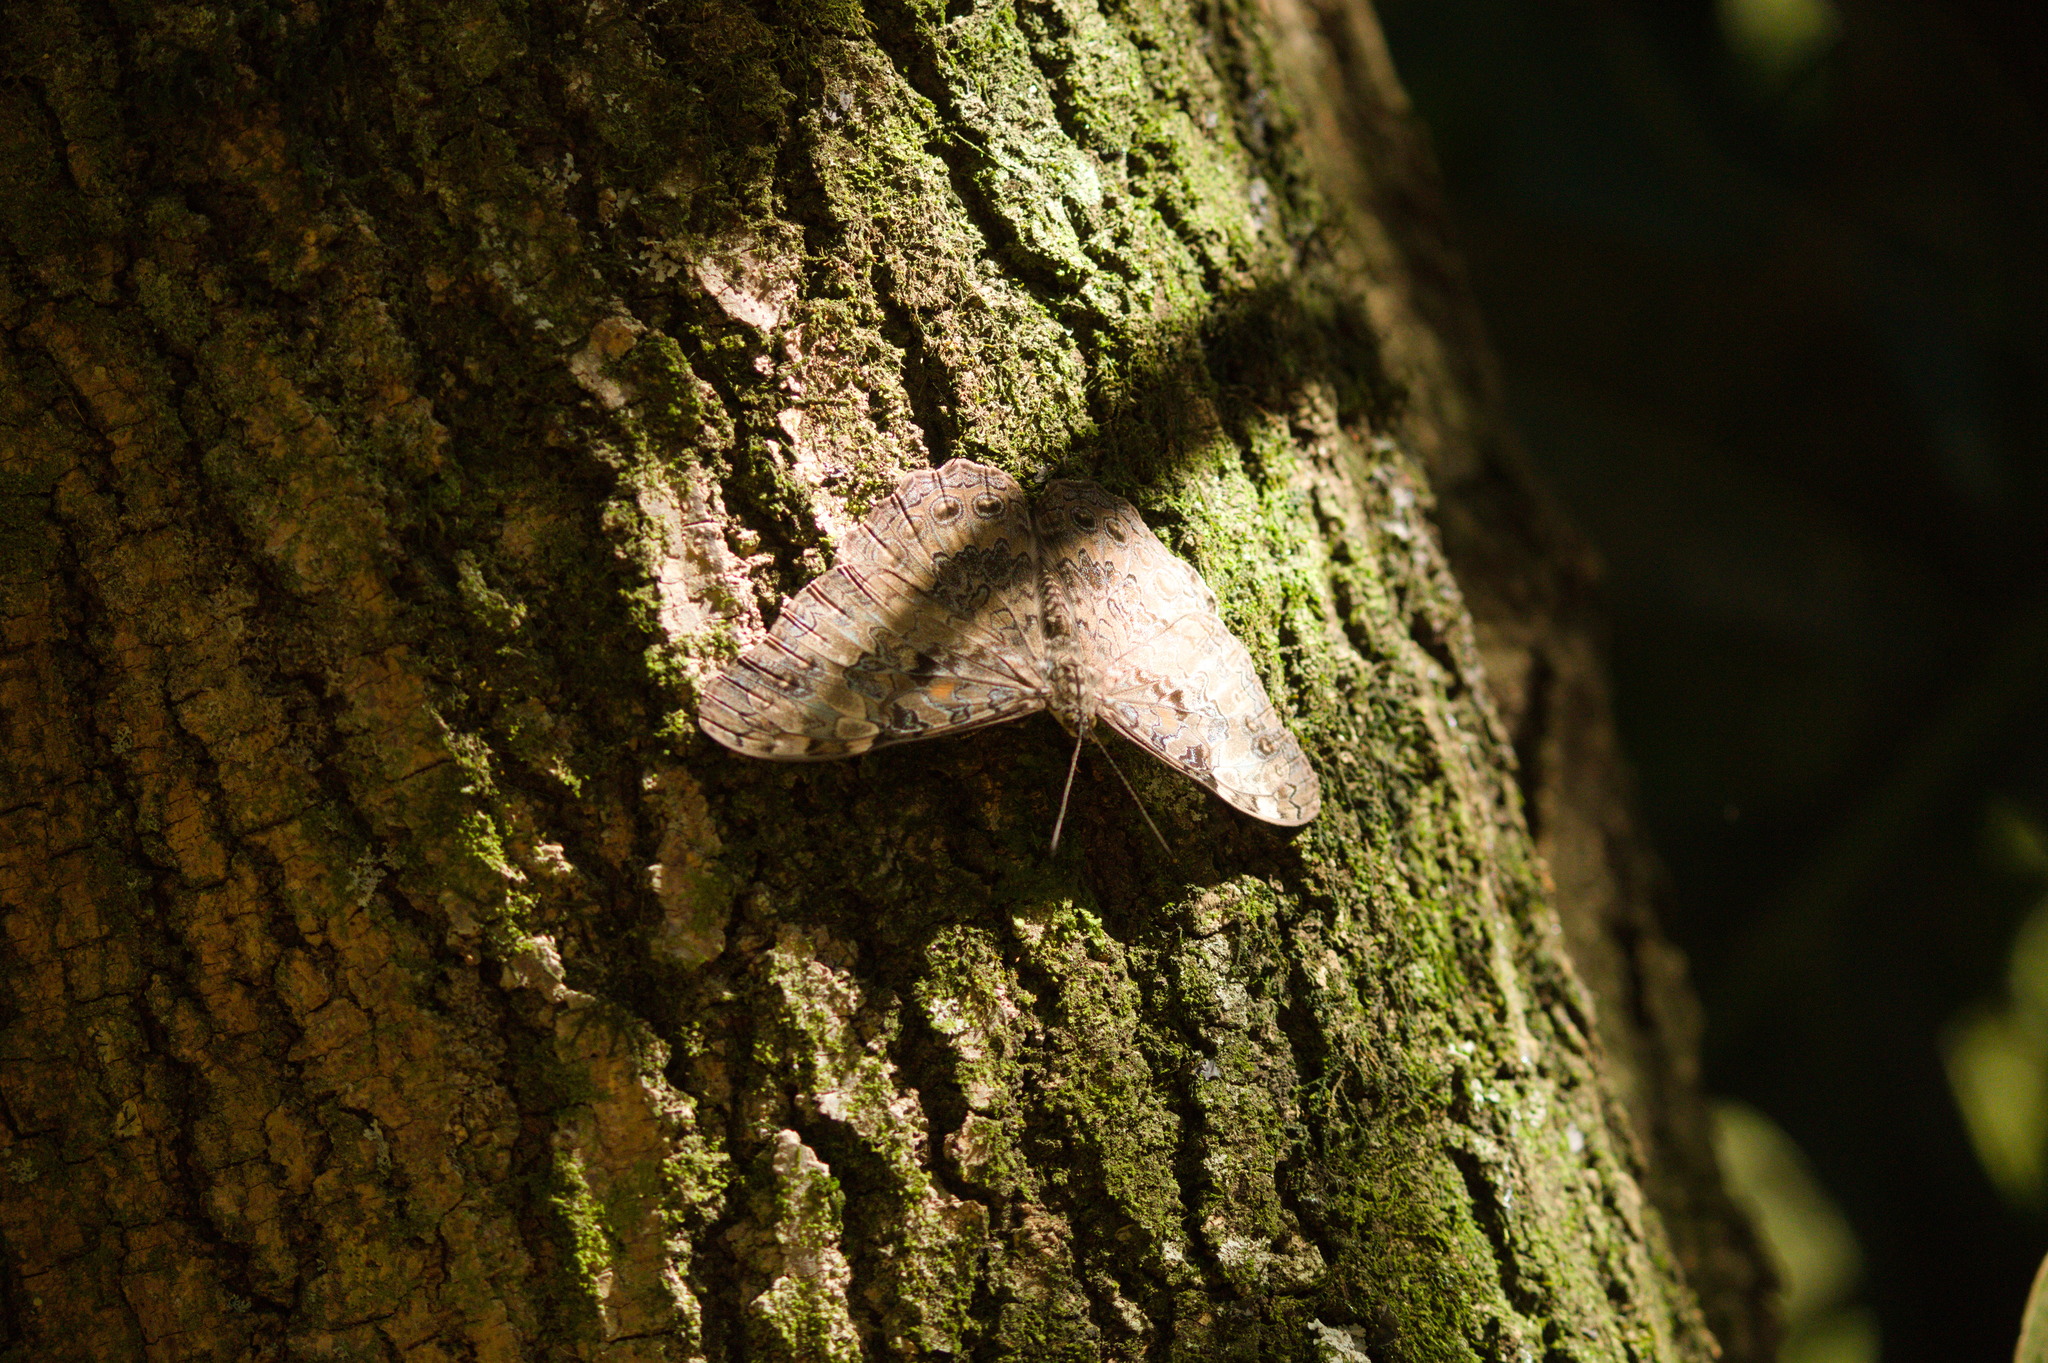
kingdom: Animalia
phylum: Arthropoda
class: Insecta
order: Lepidoptera
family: Nymphalidae
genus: Hamadryas
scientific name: Hamadryas epinome
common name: Epinome cracker
